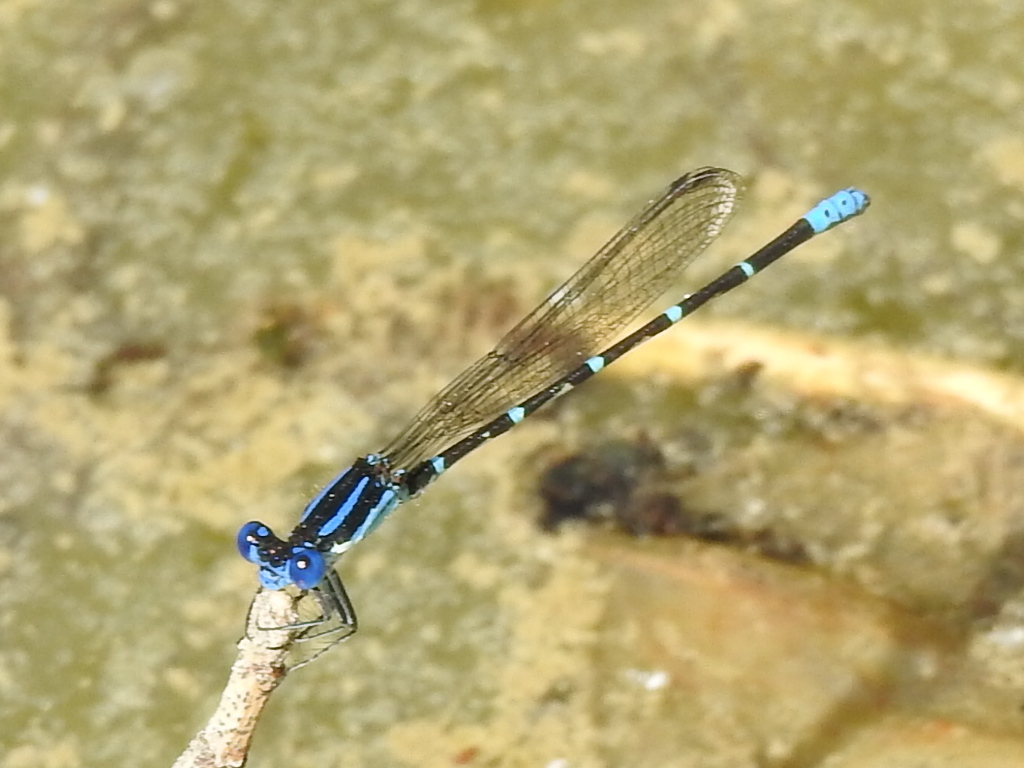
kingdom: Animalia
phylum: Arthropoda
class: Insecta
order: Odonata
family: Coenagrionidae
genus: Argia
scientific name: Argia sedula
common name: Blue-ringed dancer
